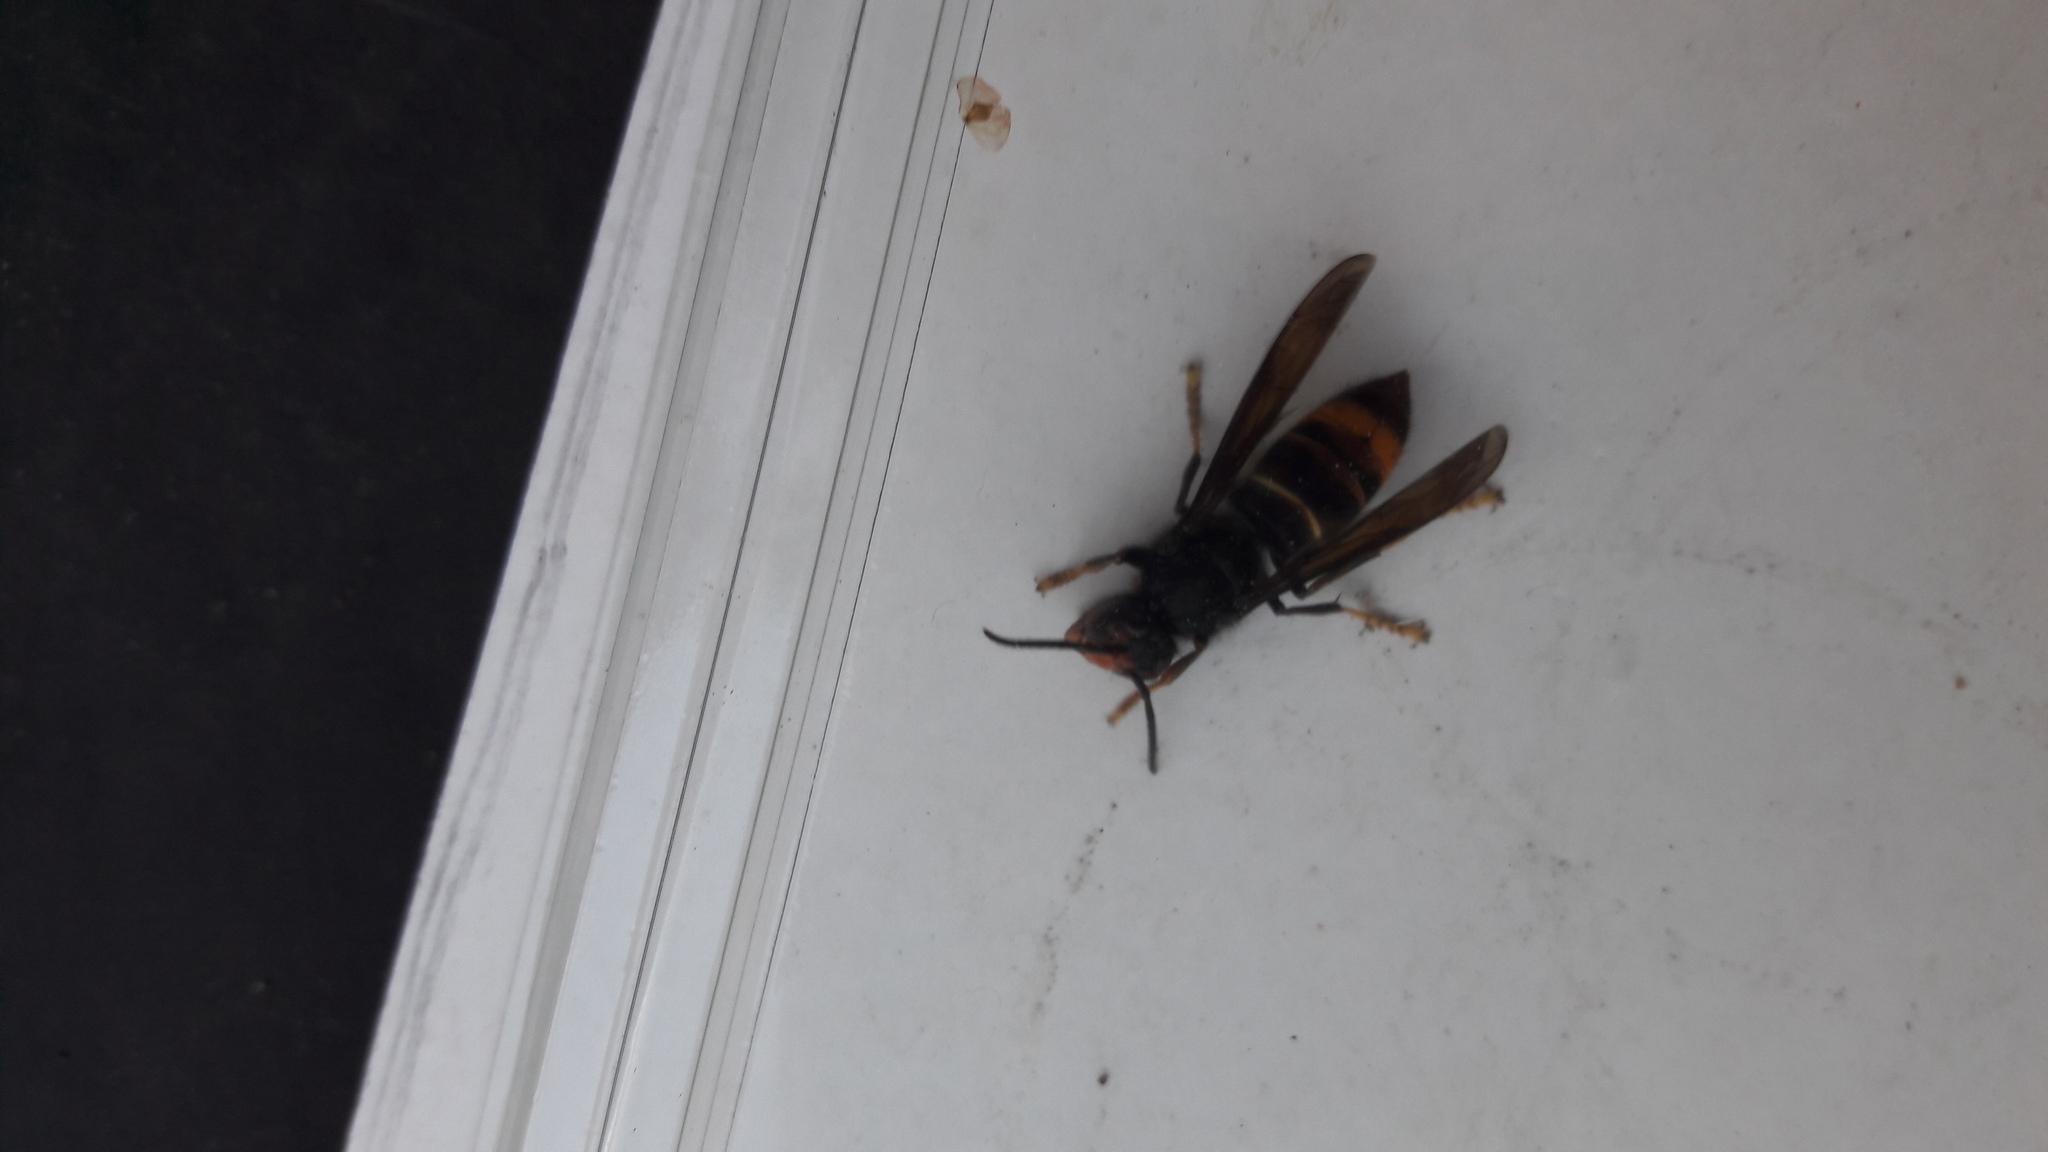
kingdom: Animalia
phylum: Arthropoda
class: Insecta
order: Hymenoptera
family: Vespidae
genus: Vespa
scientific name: Vespa velutina
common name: Asian hornet
